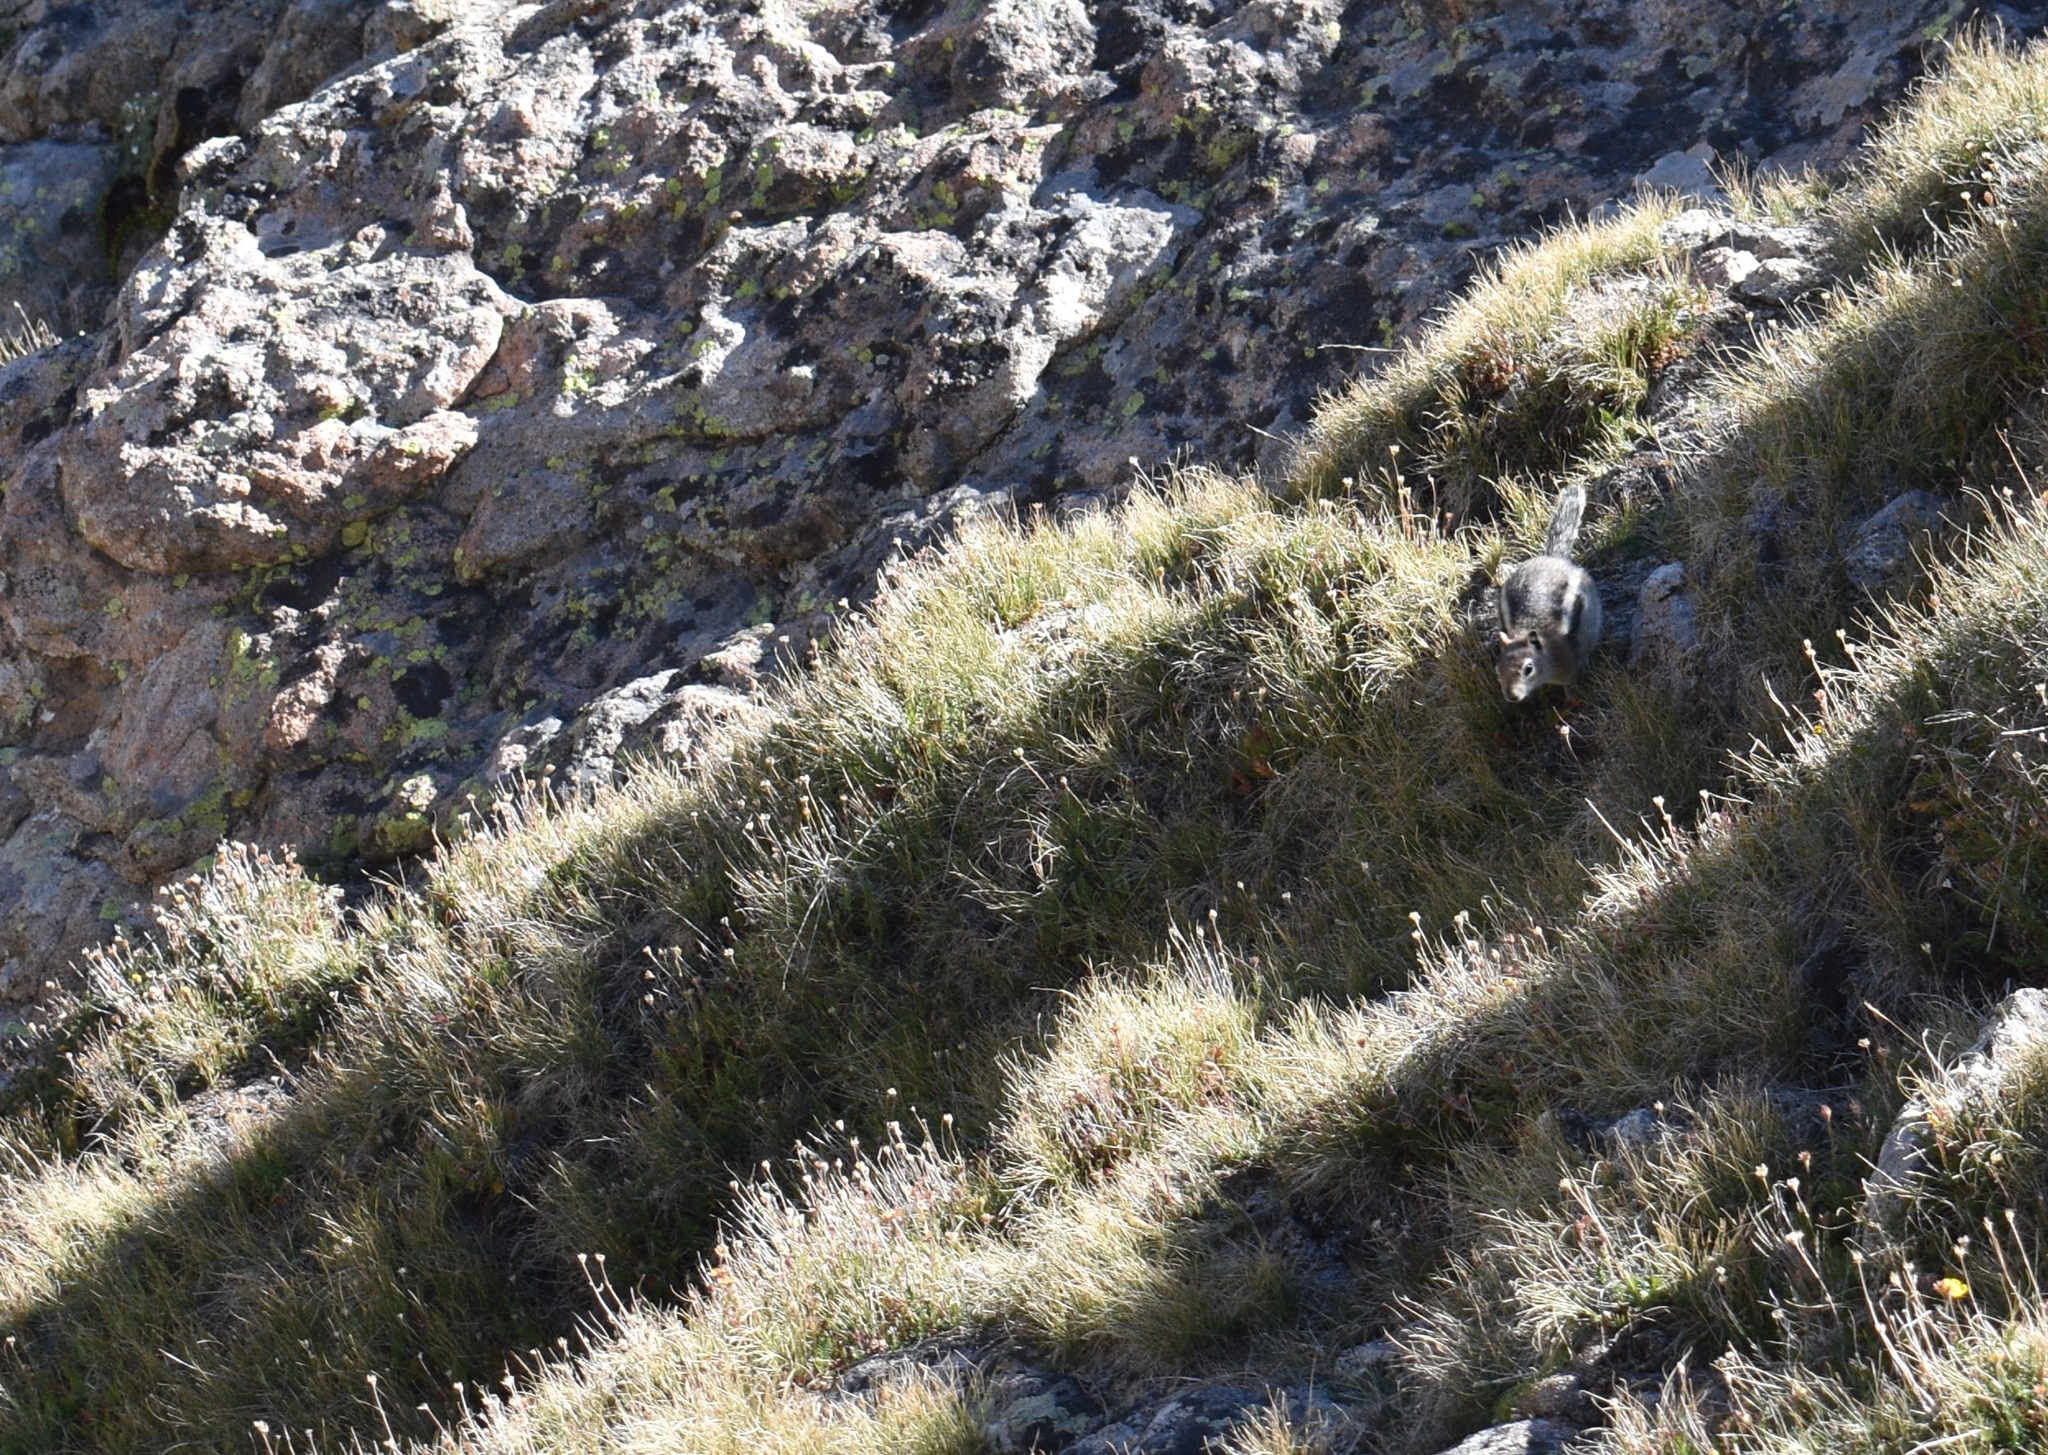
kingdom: Animalia
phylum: Chordata
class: Mammalia
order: Rodentia
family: Sciuridae
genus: Callospermophilus
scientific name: Callospermophilus lateralis
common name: Golden-mantled ground squirrel
